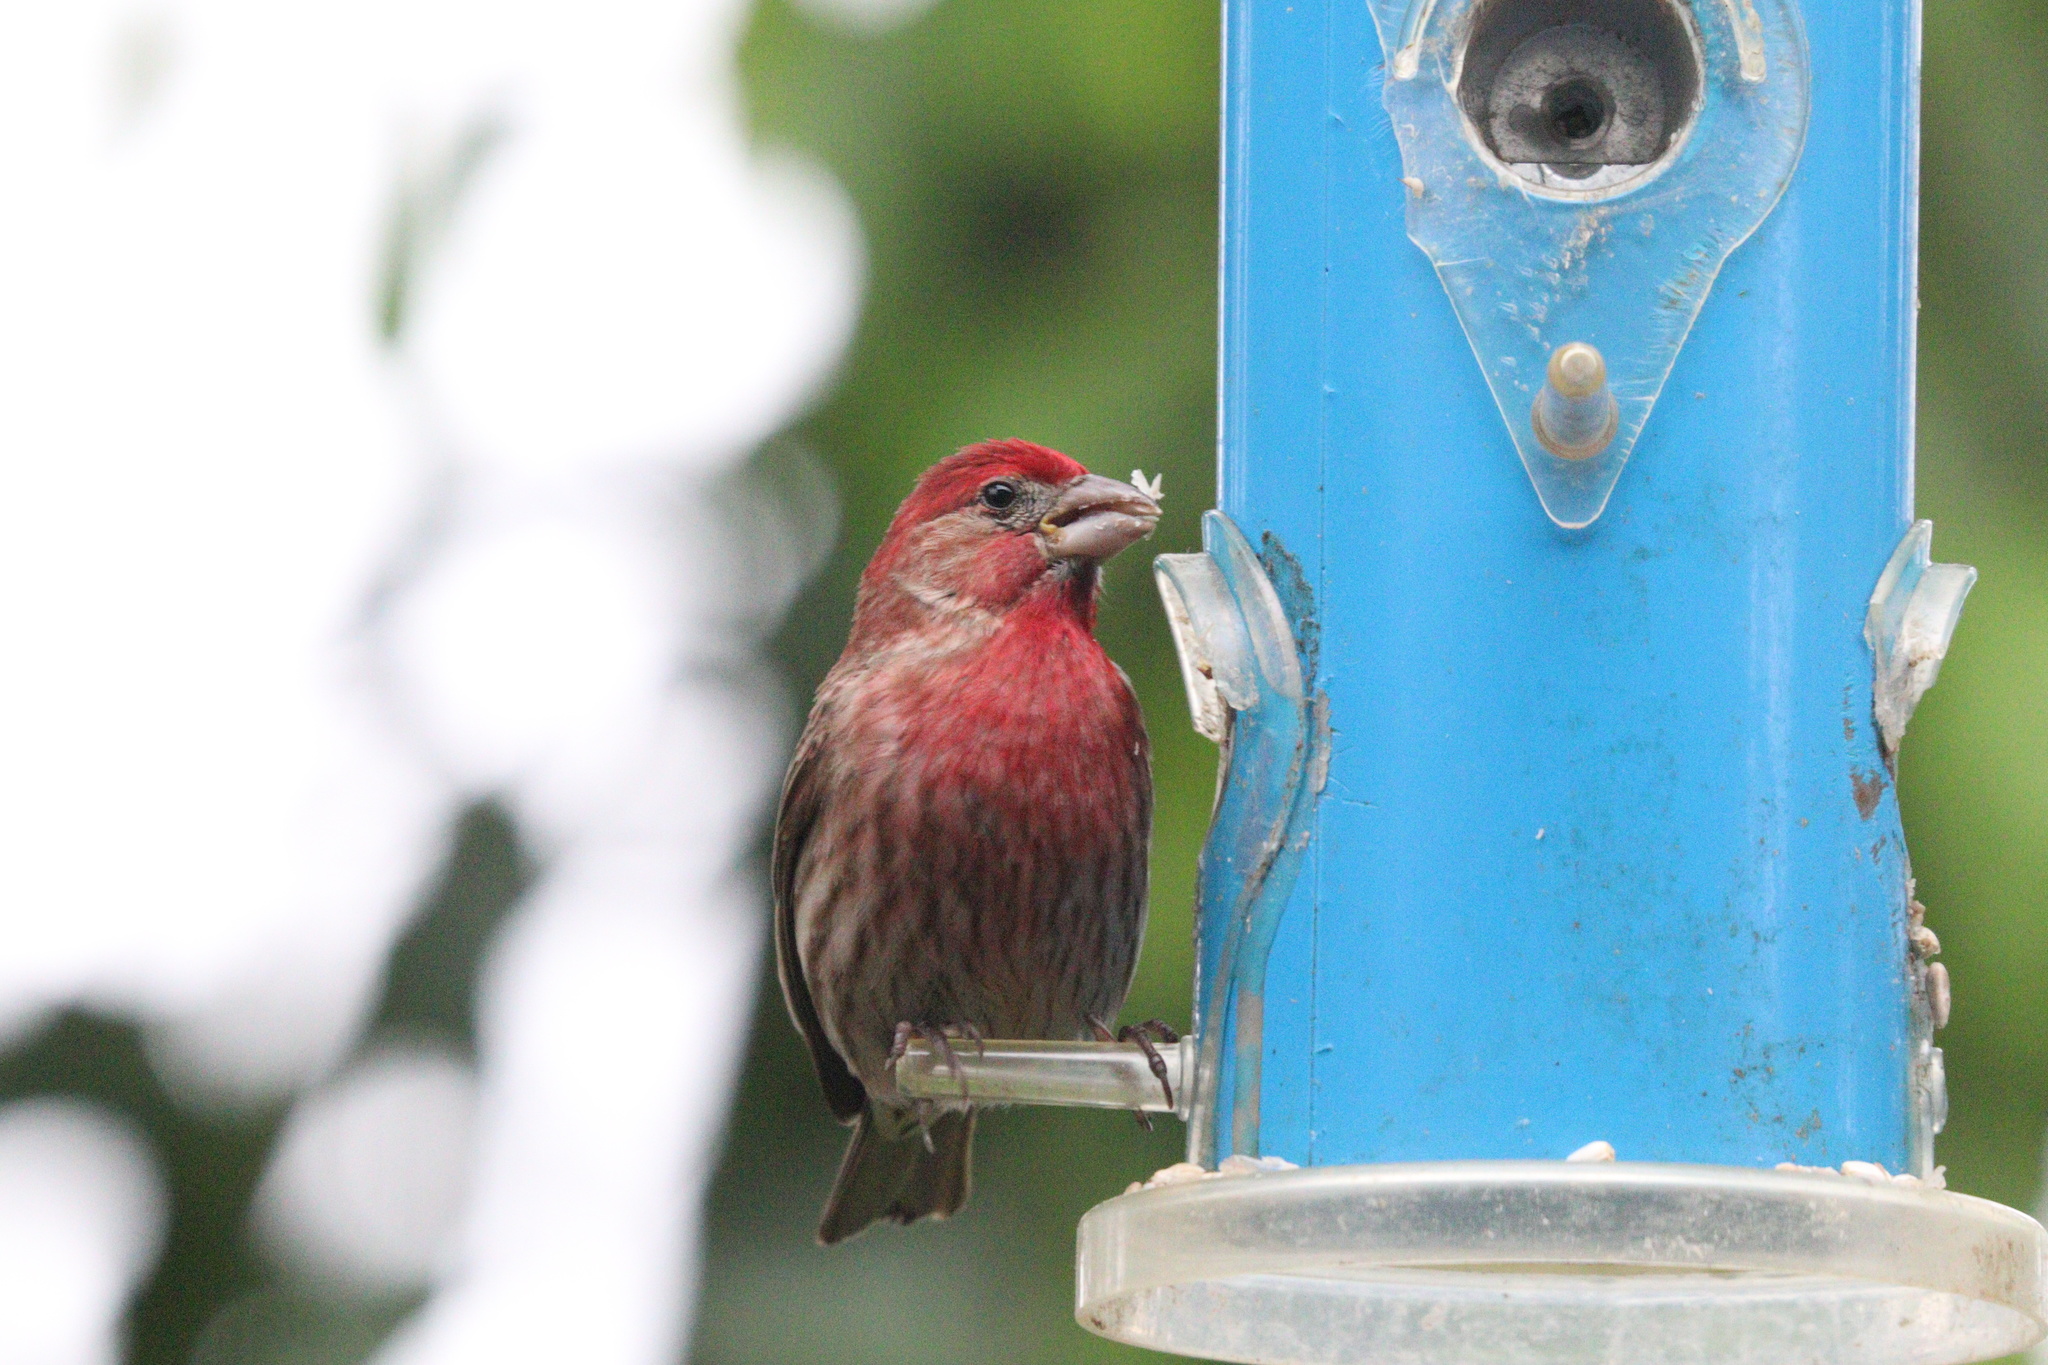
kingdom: Animalia
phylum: Chordata
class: Aves
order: Passeriformes
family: Fringillidae
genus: Haemorhous
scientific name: Haemorhous mexicanus
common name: House finch
